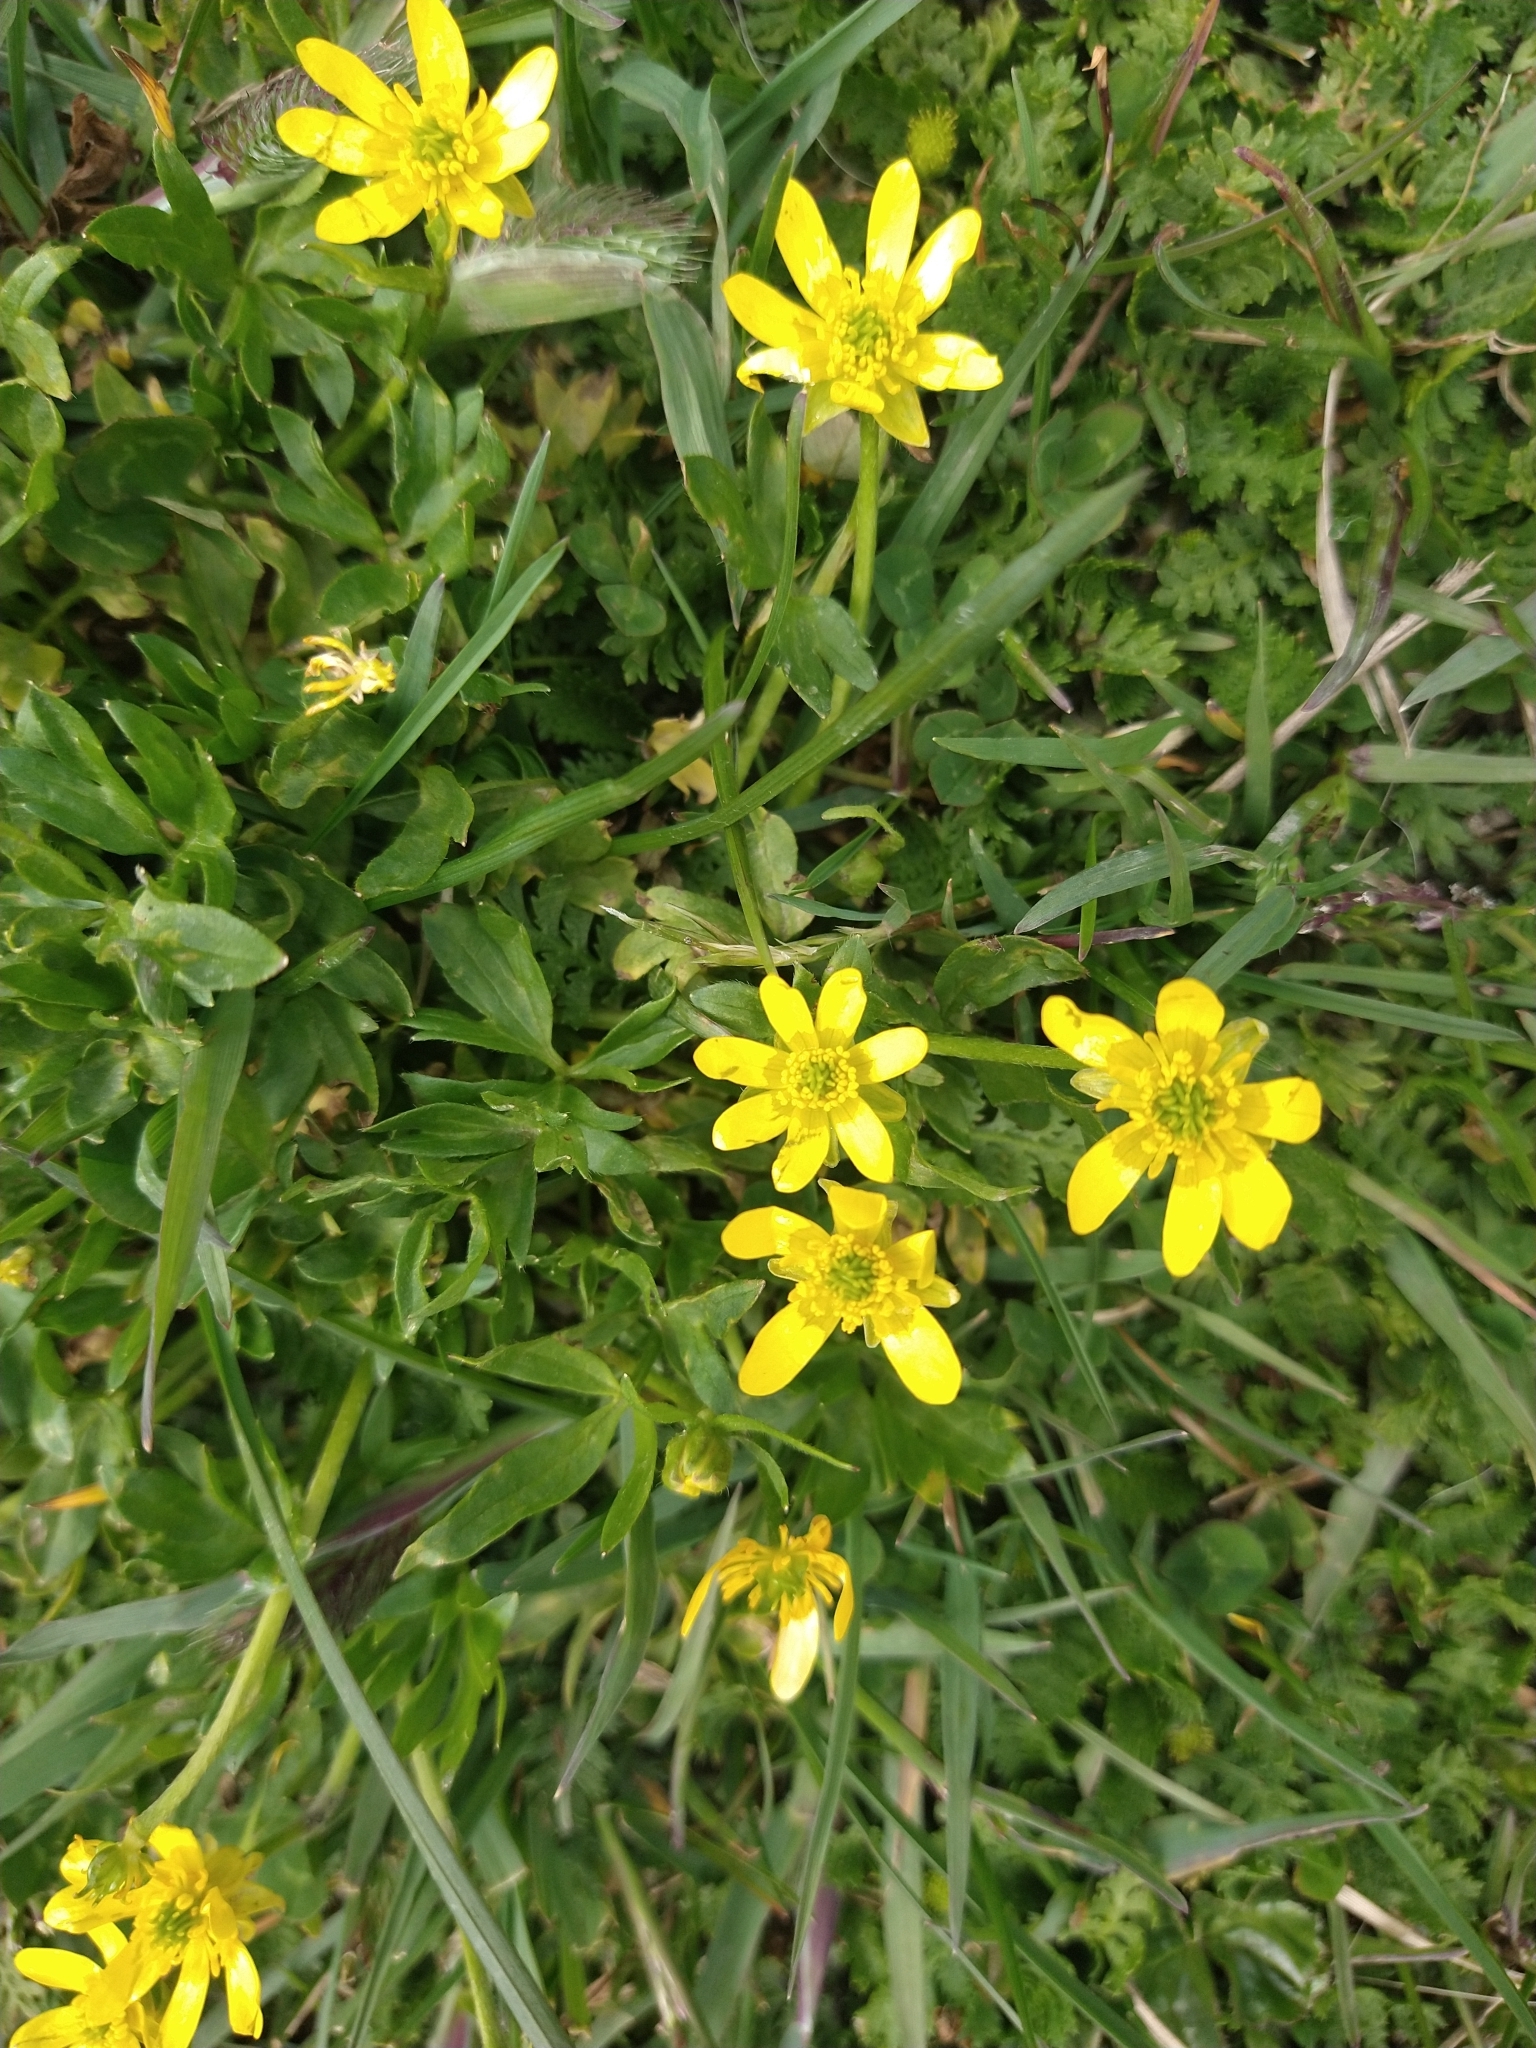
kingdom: Plantae
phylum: Tracheophyta
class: Magnoliopsida
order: Ranunculales
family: Ranunculaceae
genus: Ranunculus
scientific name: Ranunculus peduncularis
